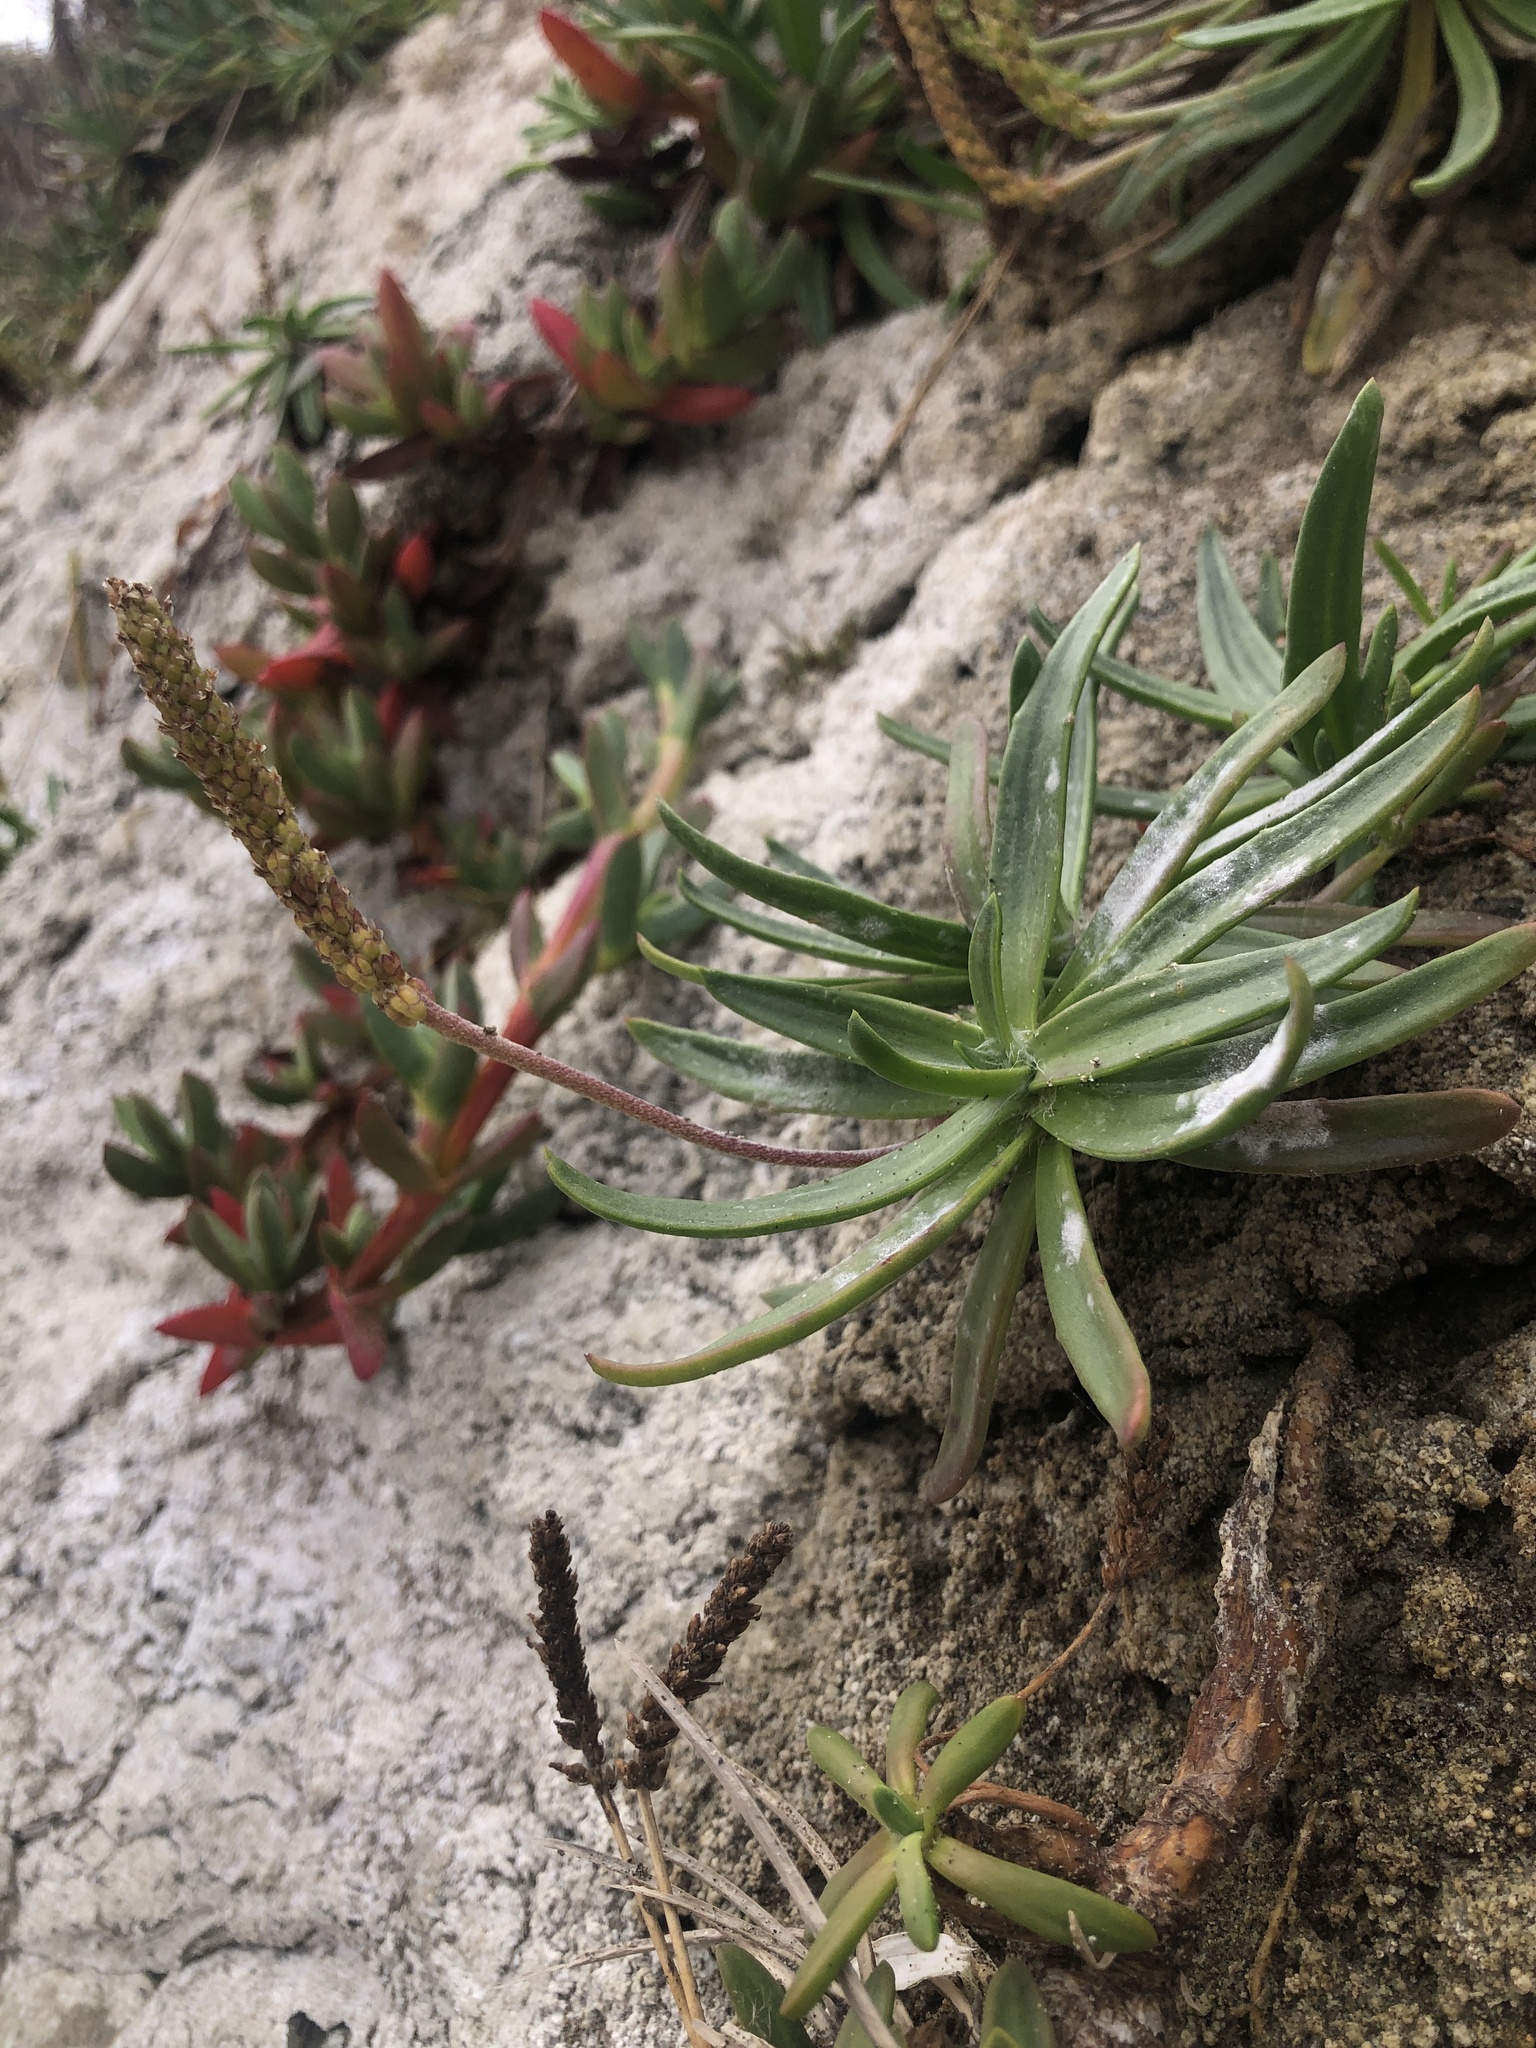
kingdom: Plantae
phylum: Tracheophyta
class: Magnoliopsida
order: Lamiales
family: Plantaginaceae
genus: Plantago
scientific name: Plantago maritima
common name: Sea plantain
